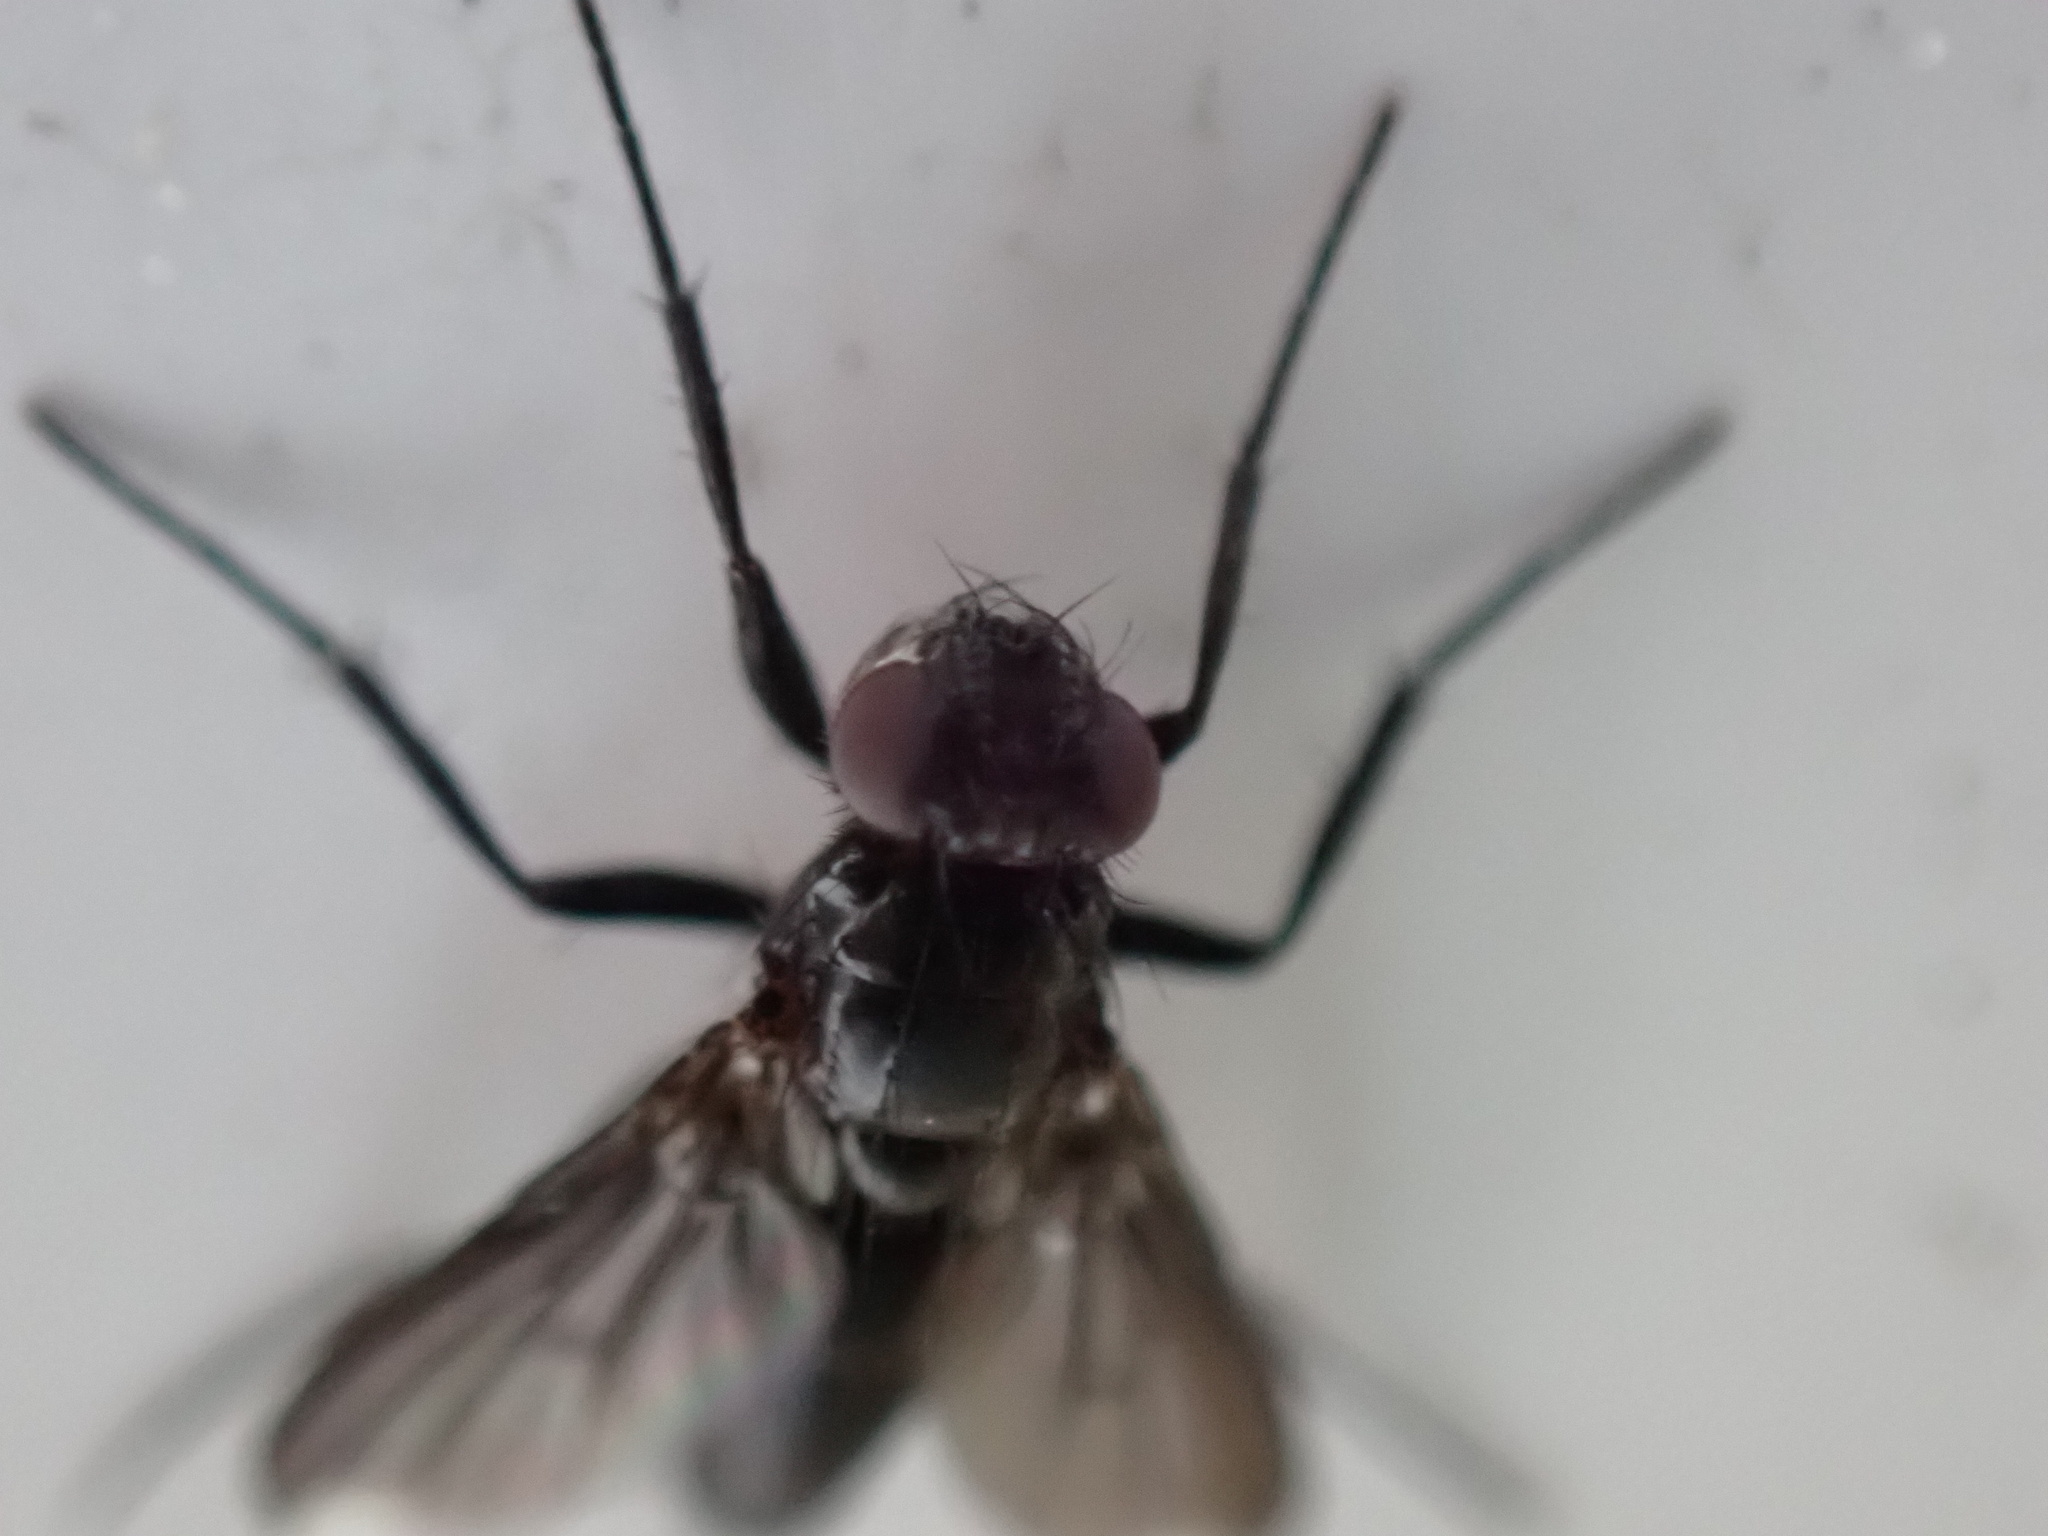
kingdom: Animalia
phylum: Arthropoda
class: Insecta
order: Diptera
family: Calliphoridae
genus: Melanophora
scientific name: Melanophora roralis
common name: Smoky-winged woodlouse-fly
